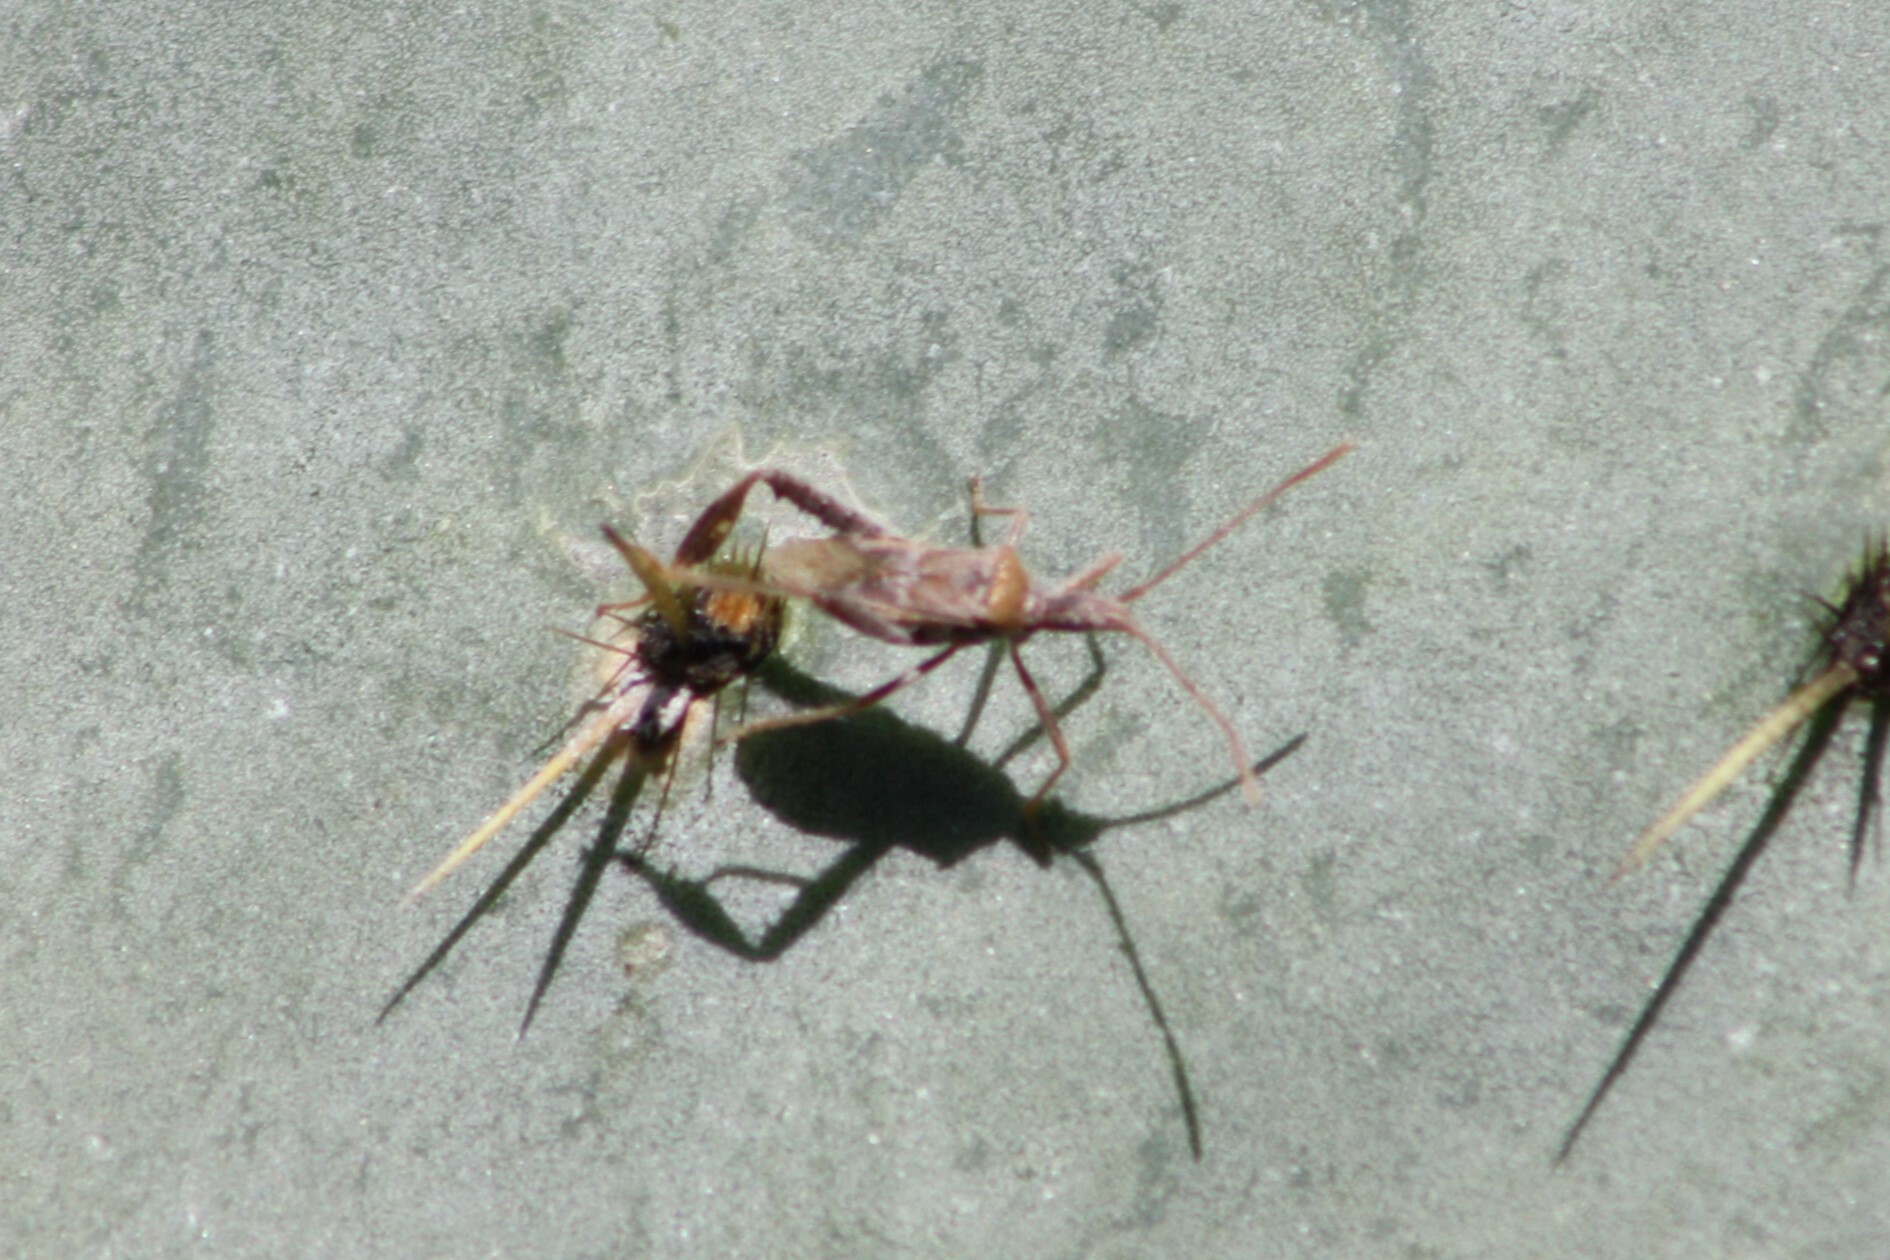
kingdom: Animalia
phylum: Arthropoda
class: Insecta
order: Hemiptera
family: Coreidae
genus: Narnia
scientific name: Narnia femorata
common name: Leaf-footed cactus bug
